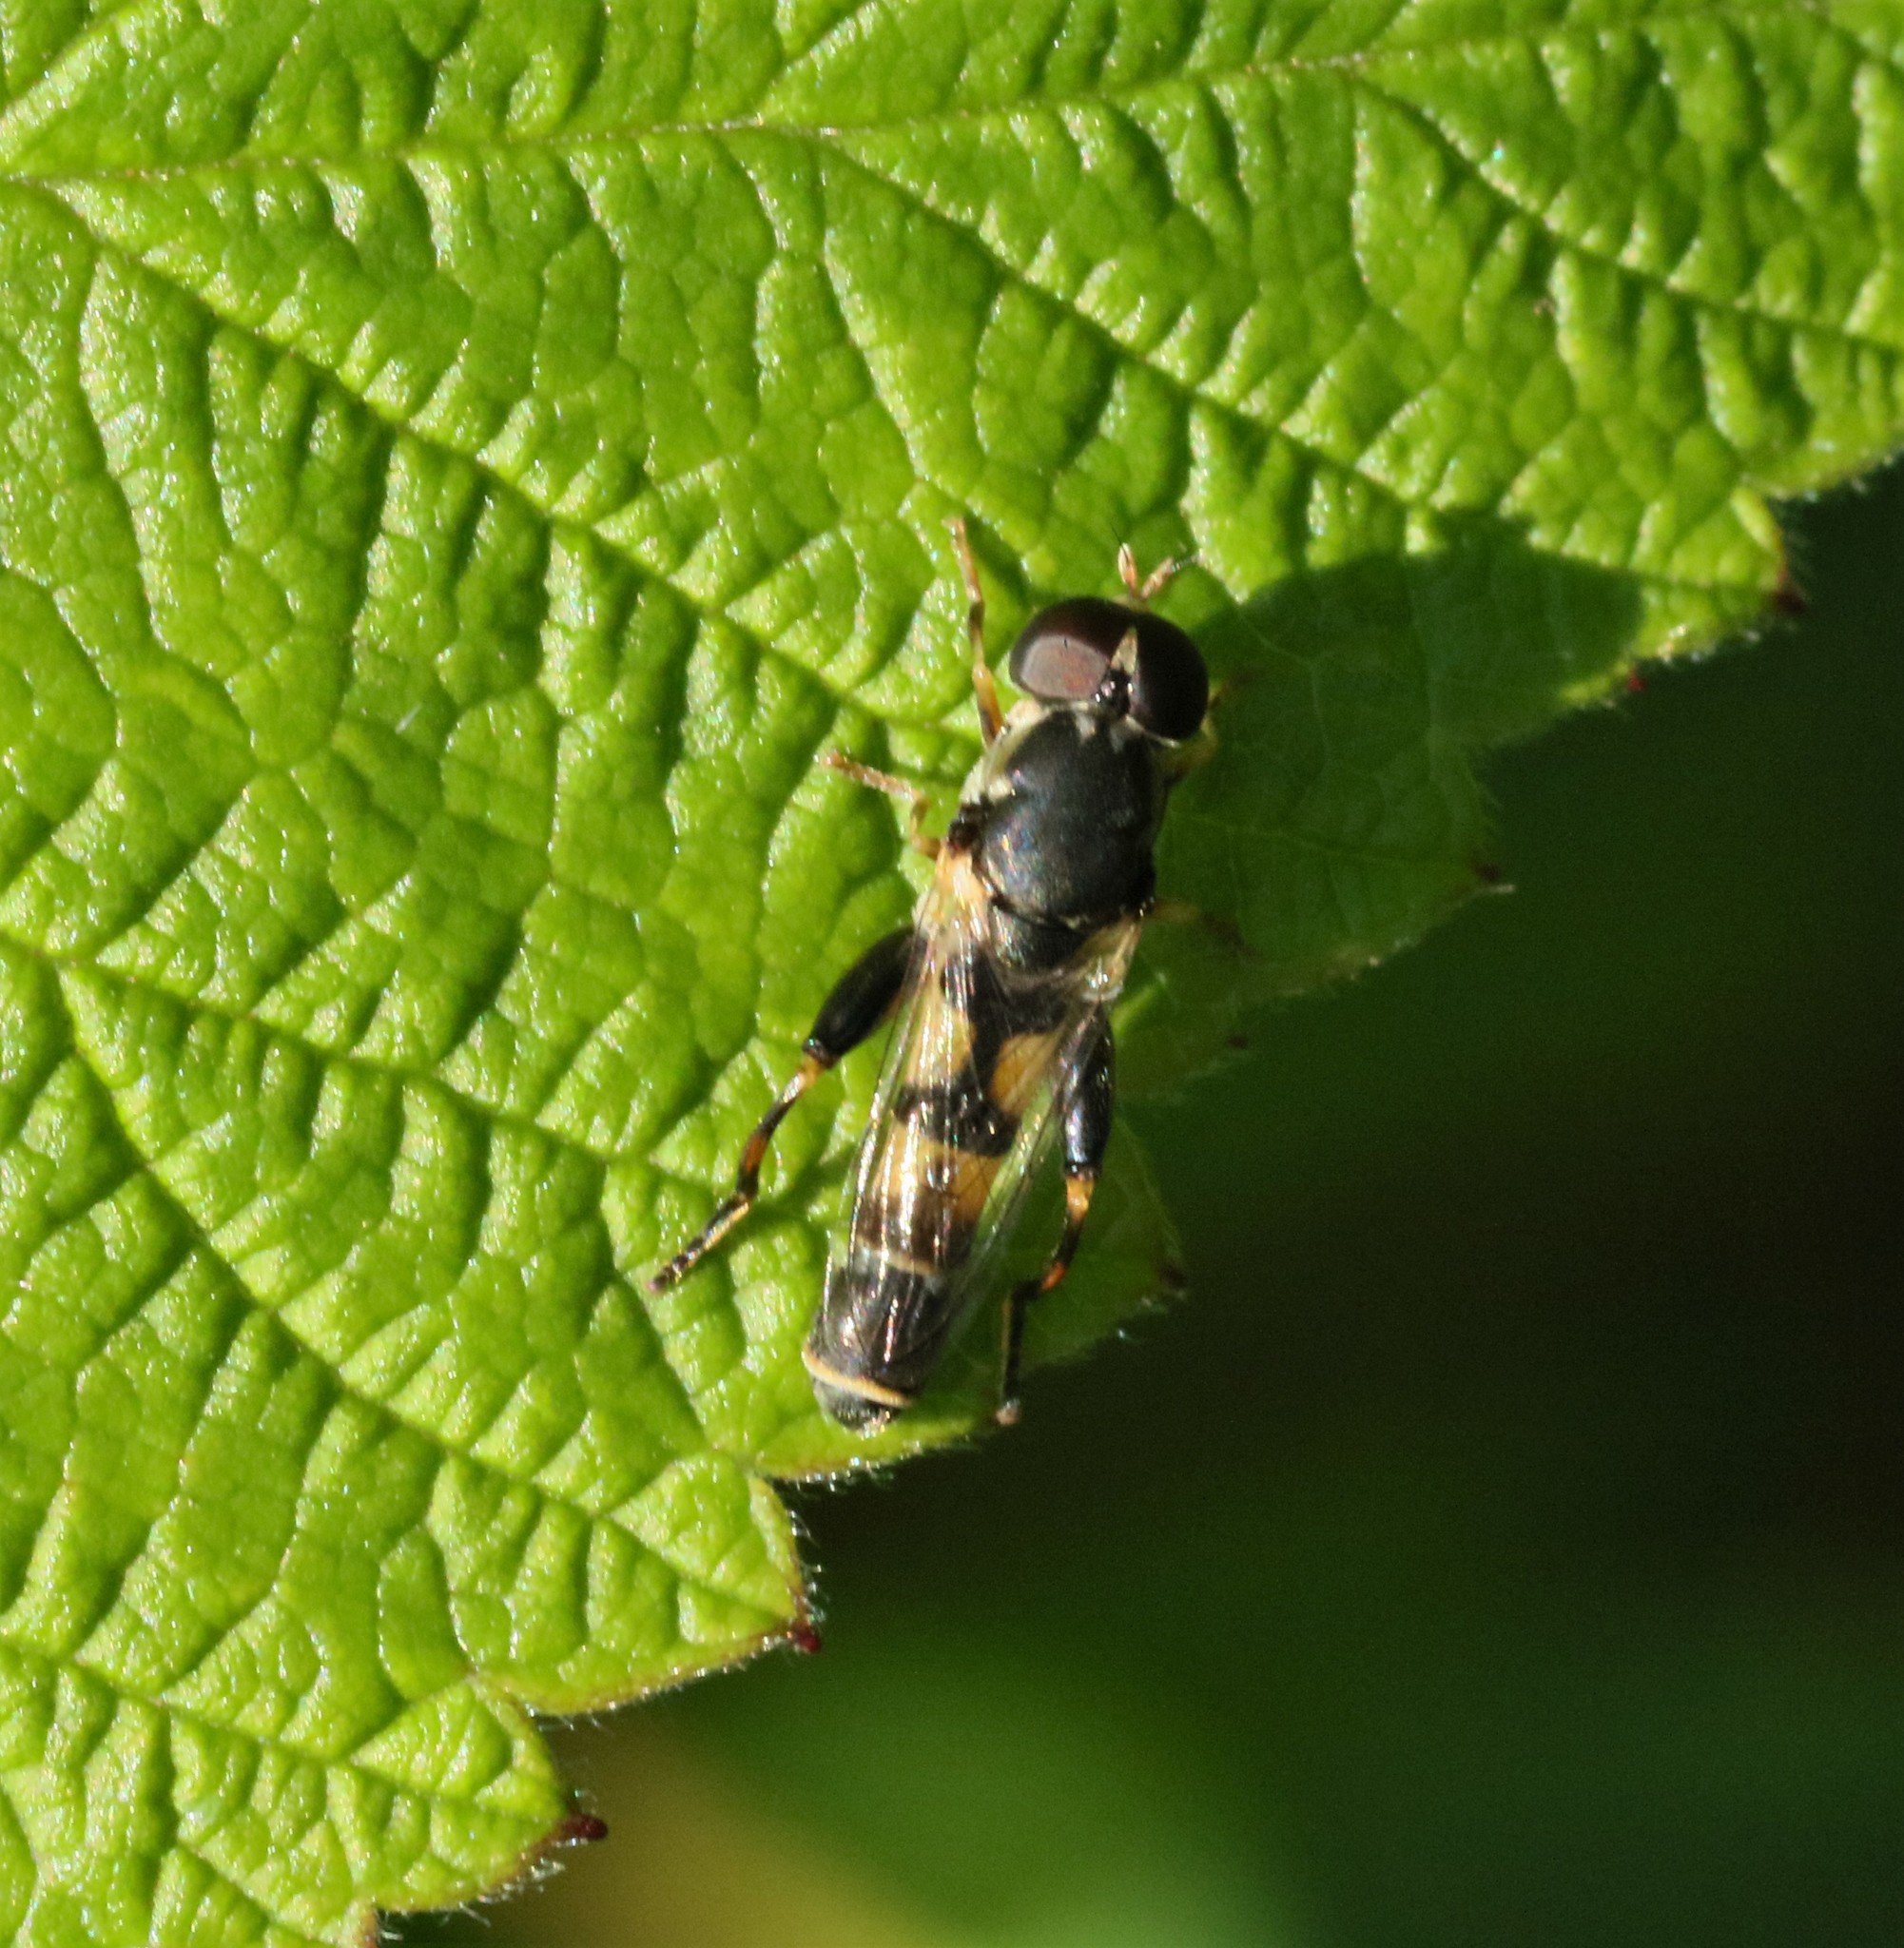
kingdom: Animalia
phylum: Arthropoda
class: Insecta
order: Diptera
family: Syrphidae
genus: Syritta
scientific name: Syritta pipiens
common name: Hover fly
